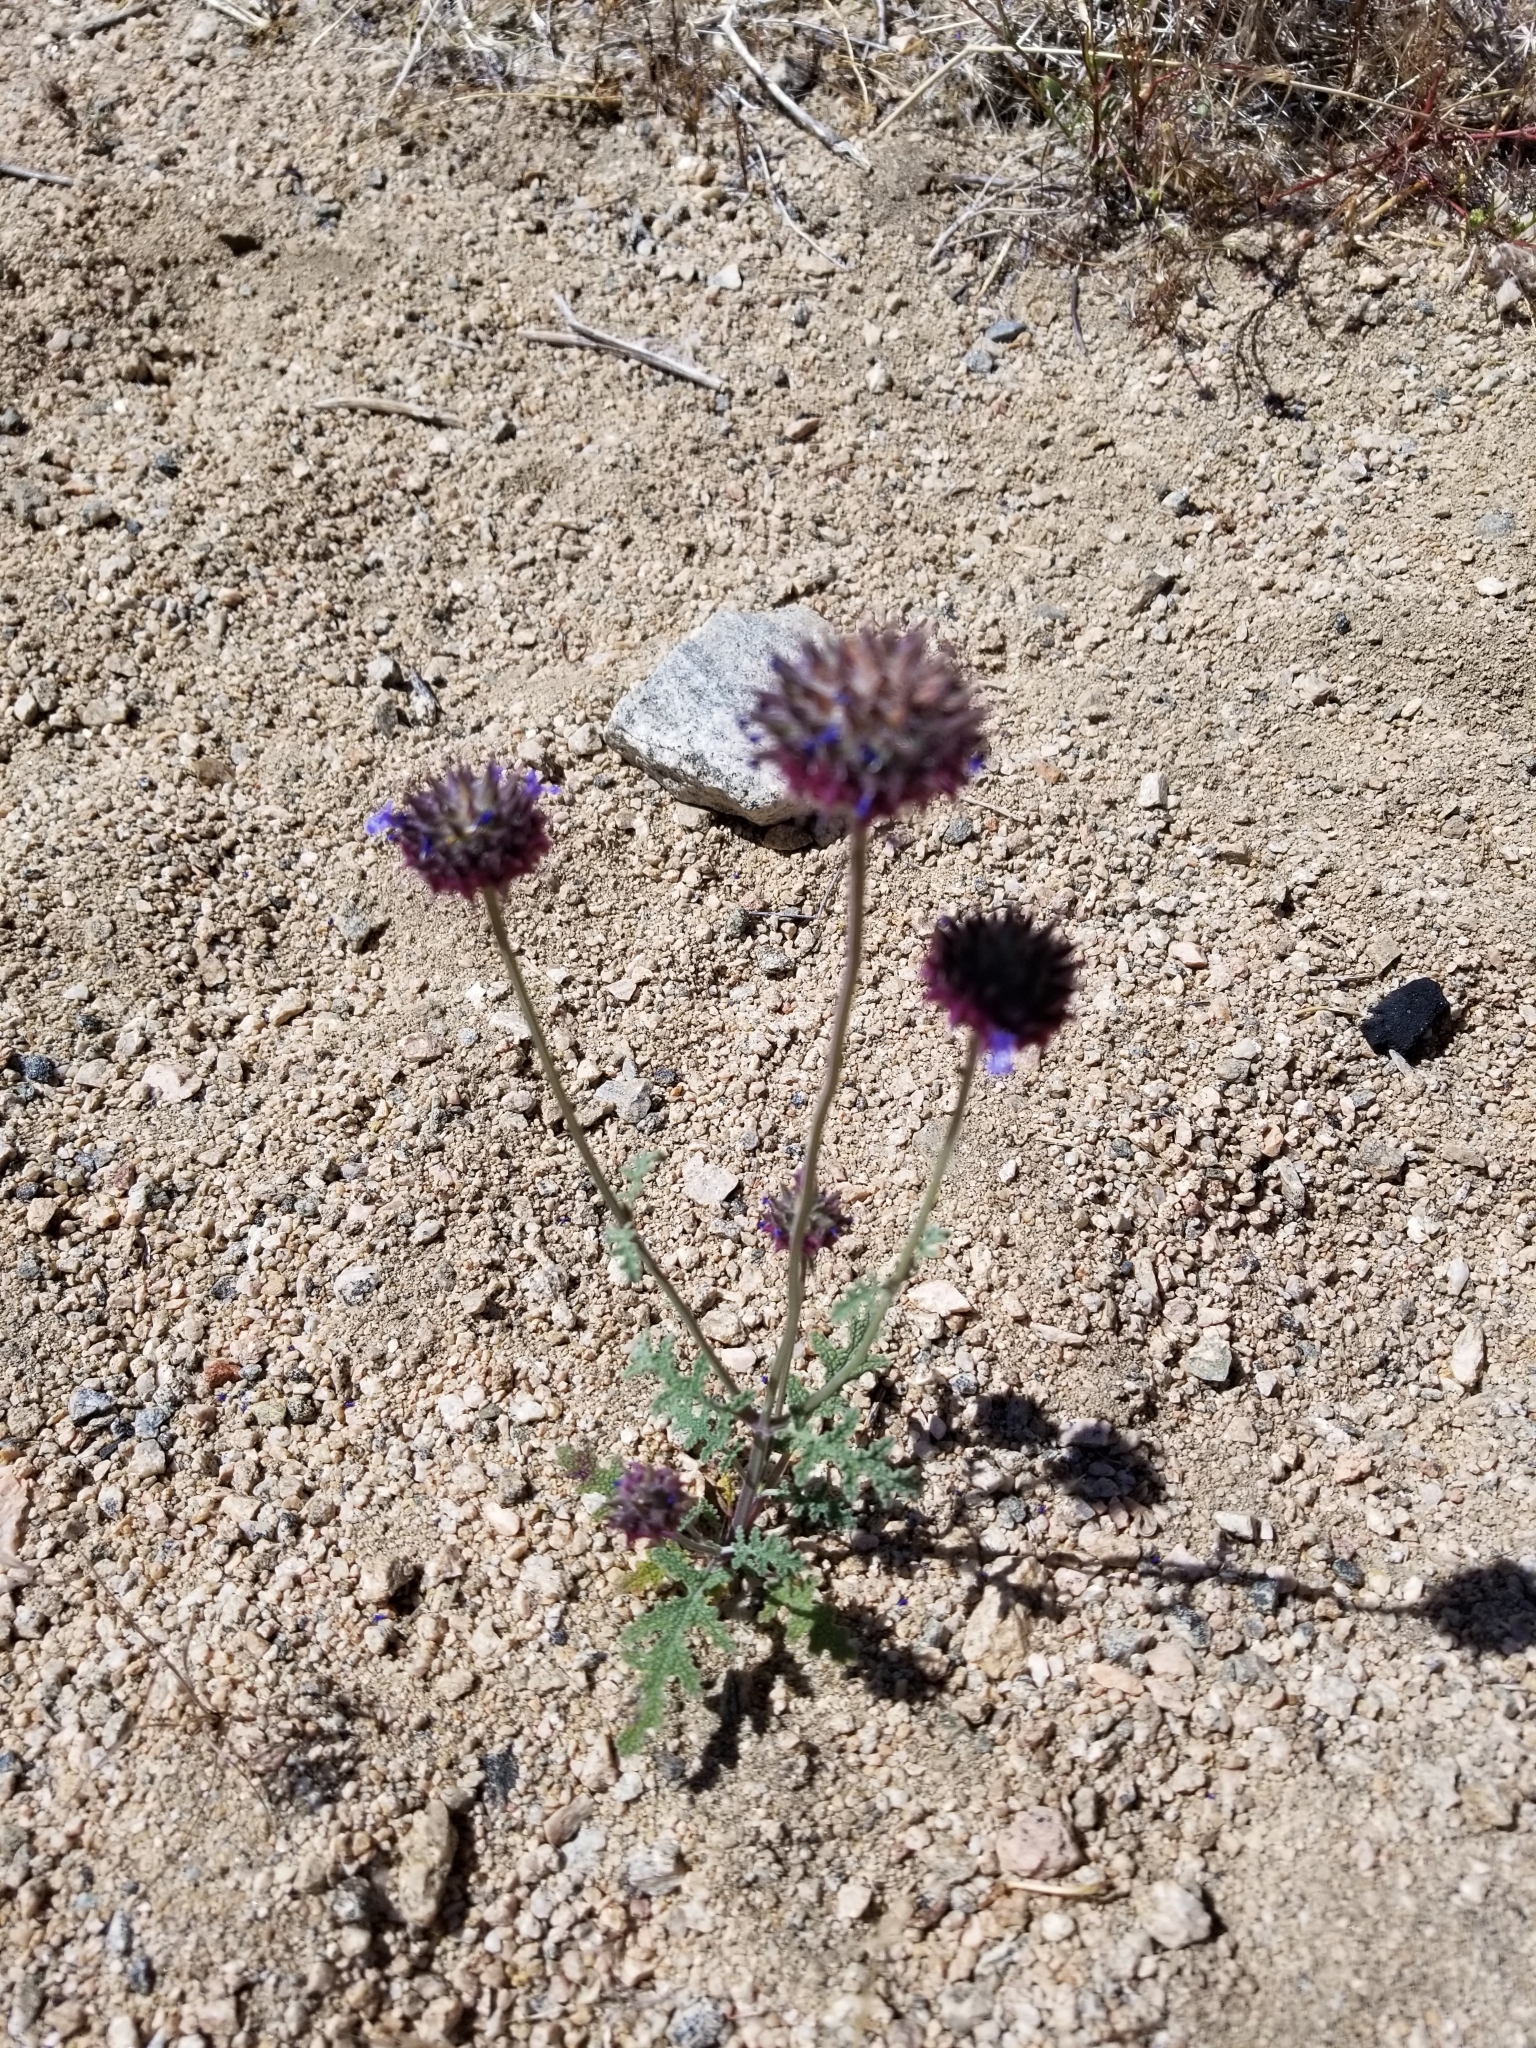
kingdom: Plantae
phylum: Tracheophyta
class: Magnoliopsida
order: Lamiales
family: Lamiaceae
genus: Salvia
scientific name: Salvia columbariae
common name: Chia
